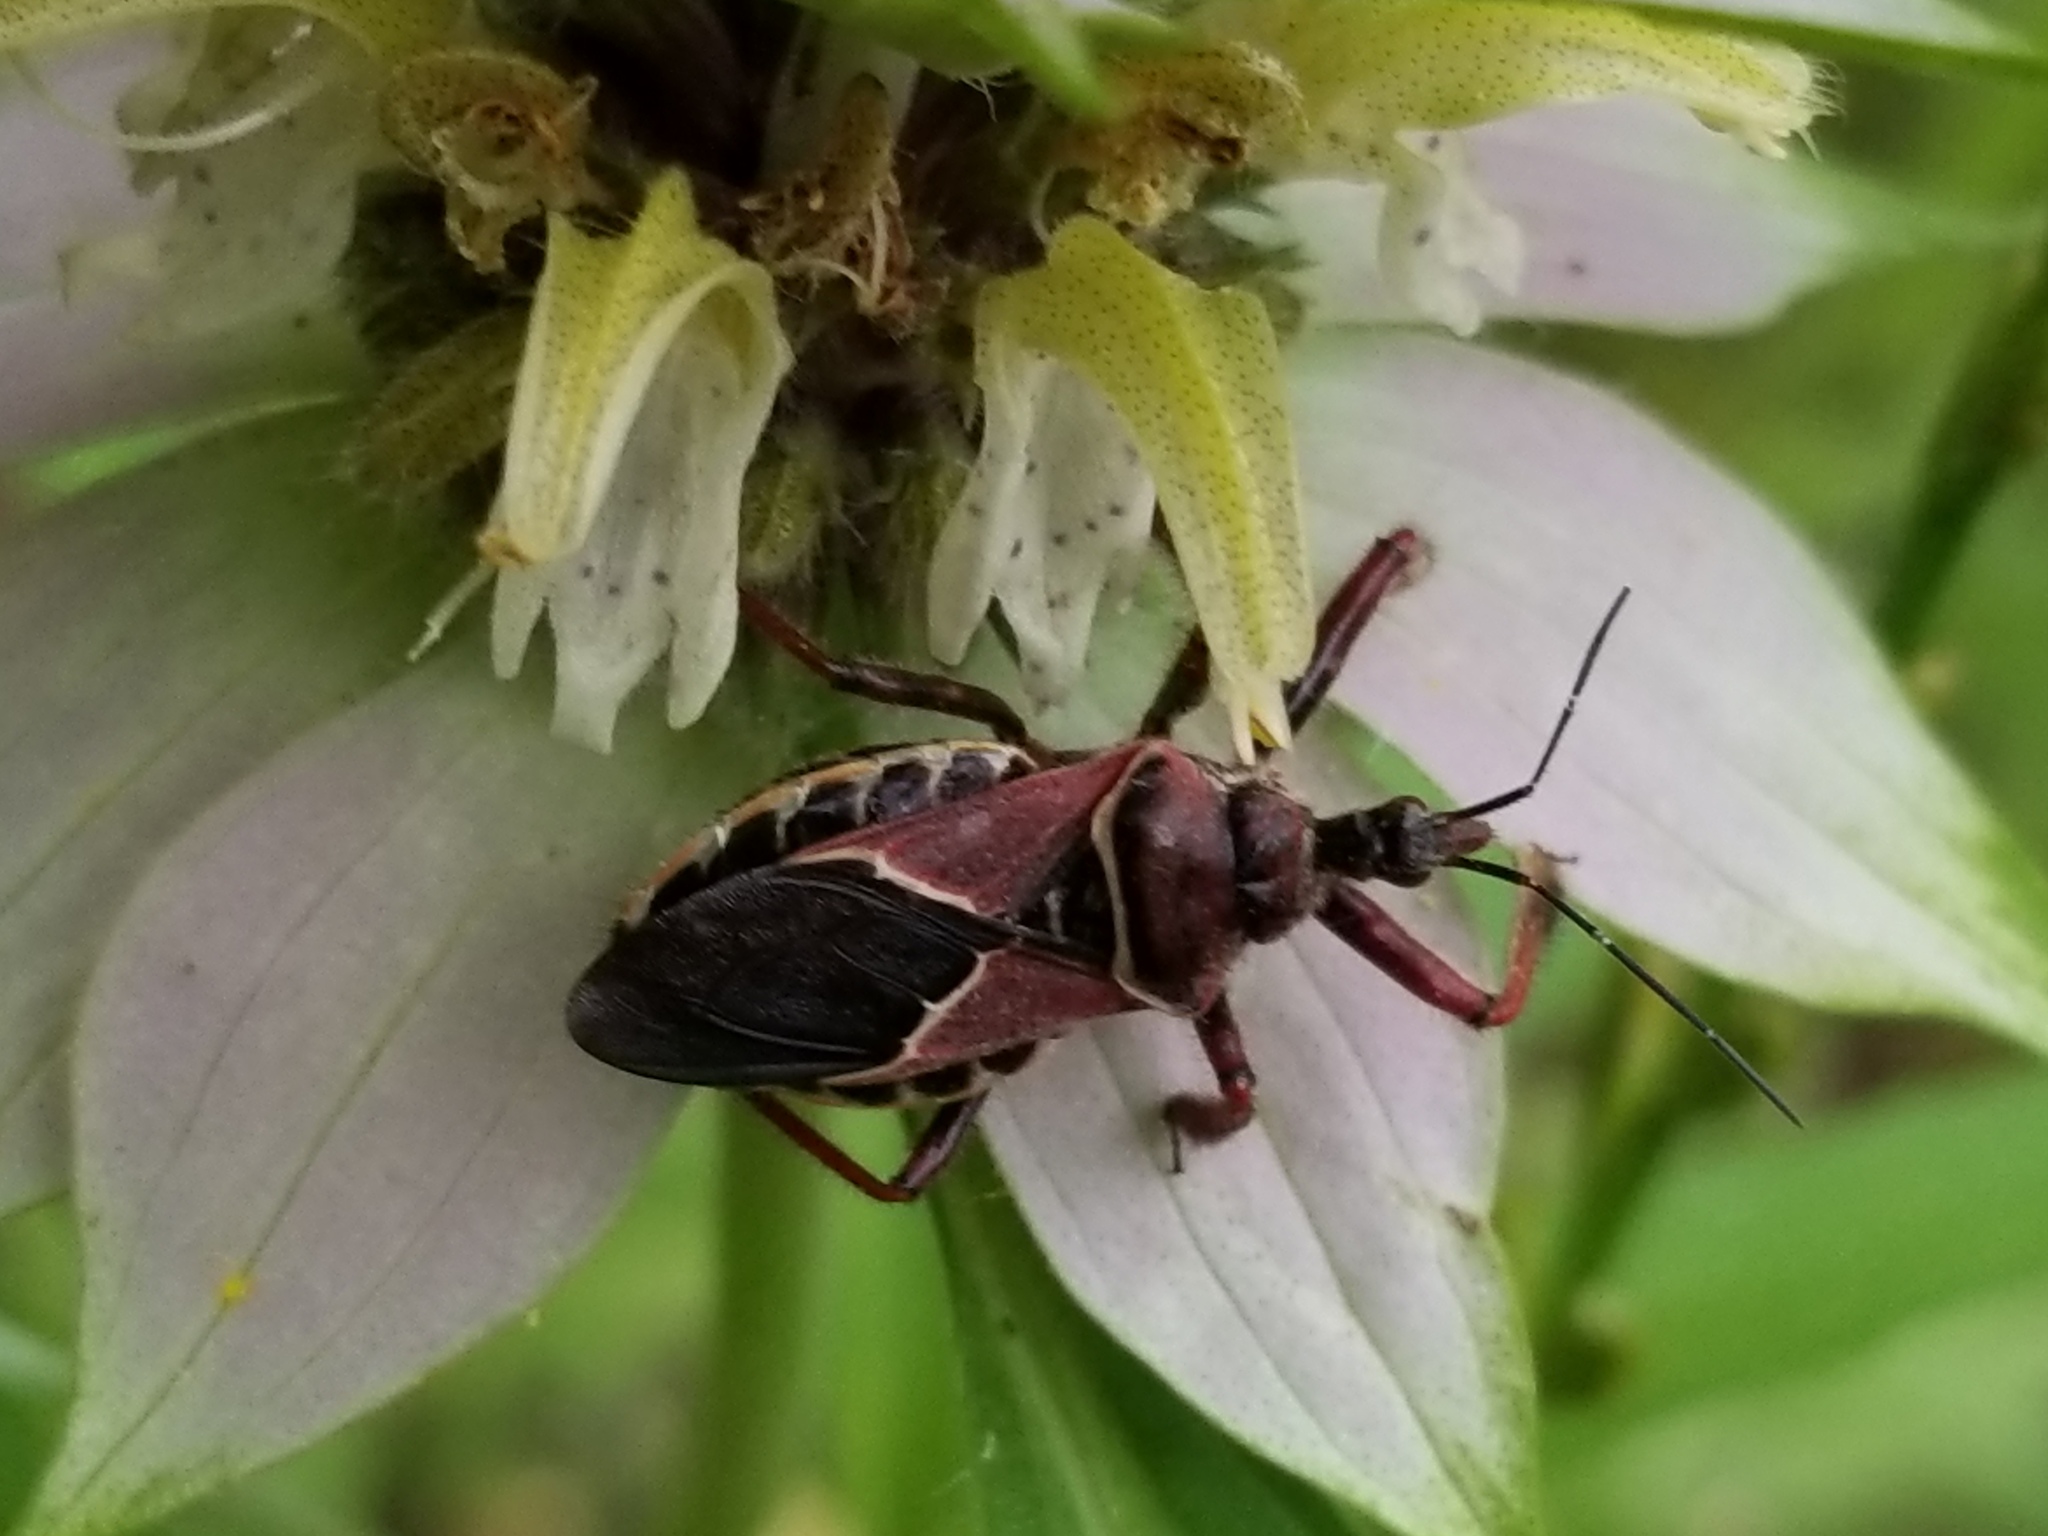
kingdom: Animalia
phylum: Arthropoda
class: Insecta
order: Hemiptera
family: Reduviidae
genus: Apiomerus
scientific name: Apiomerus spissipes
